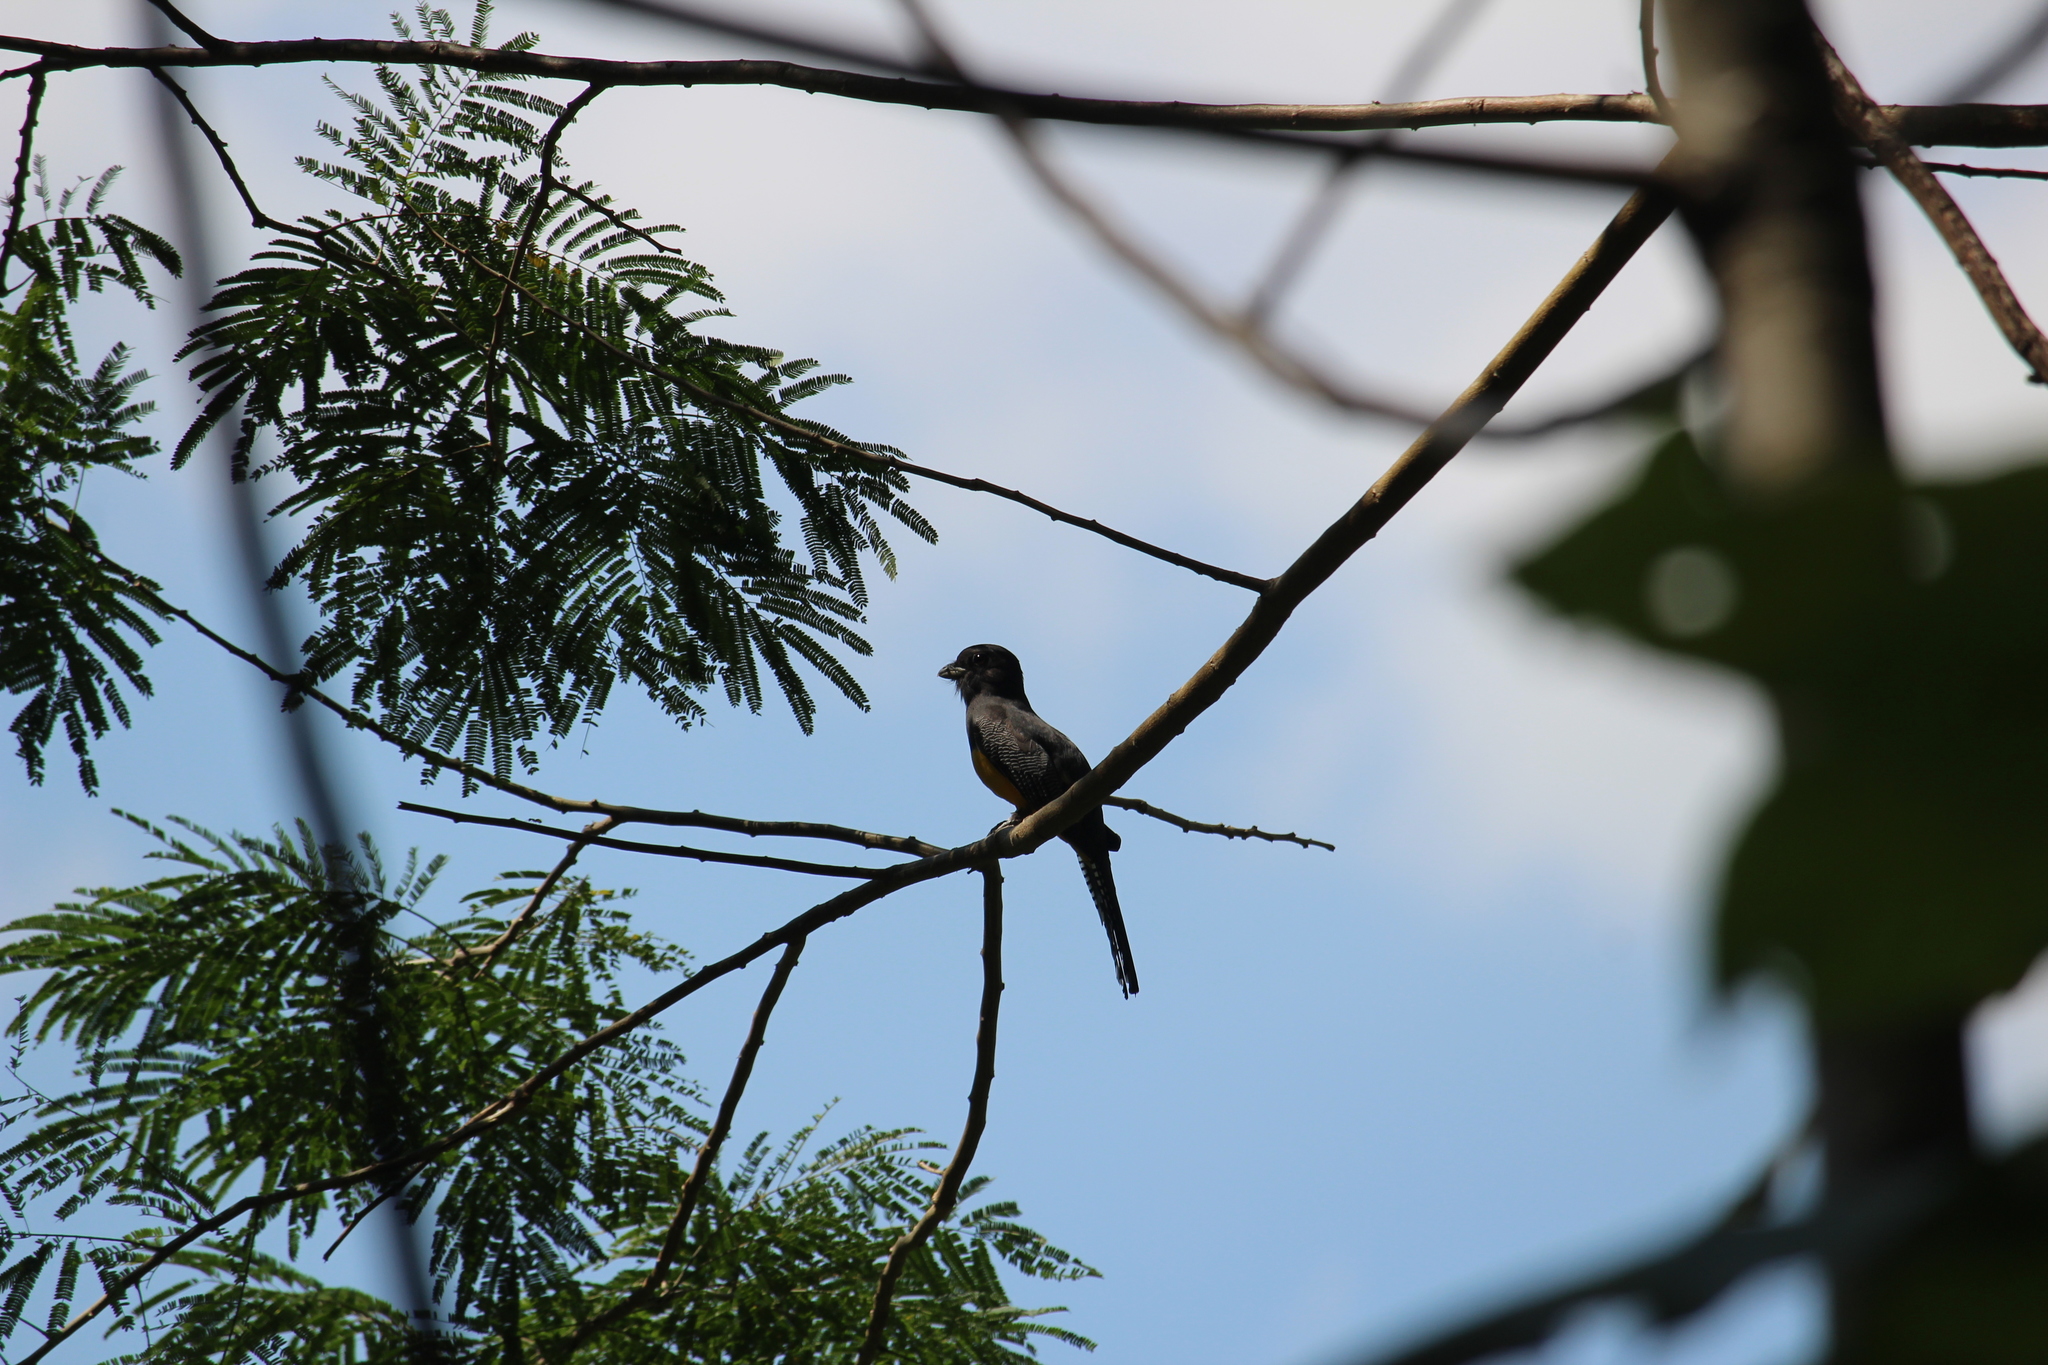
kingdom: Animalia
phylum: Chordata
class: Aves
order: Trogoniformes
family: Trogonidae
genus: Trogon
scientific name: Trogon caligatus
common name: Gartered trogon
